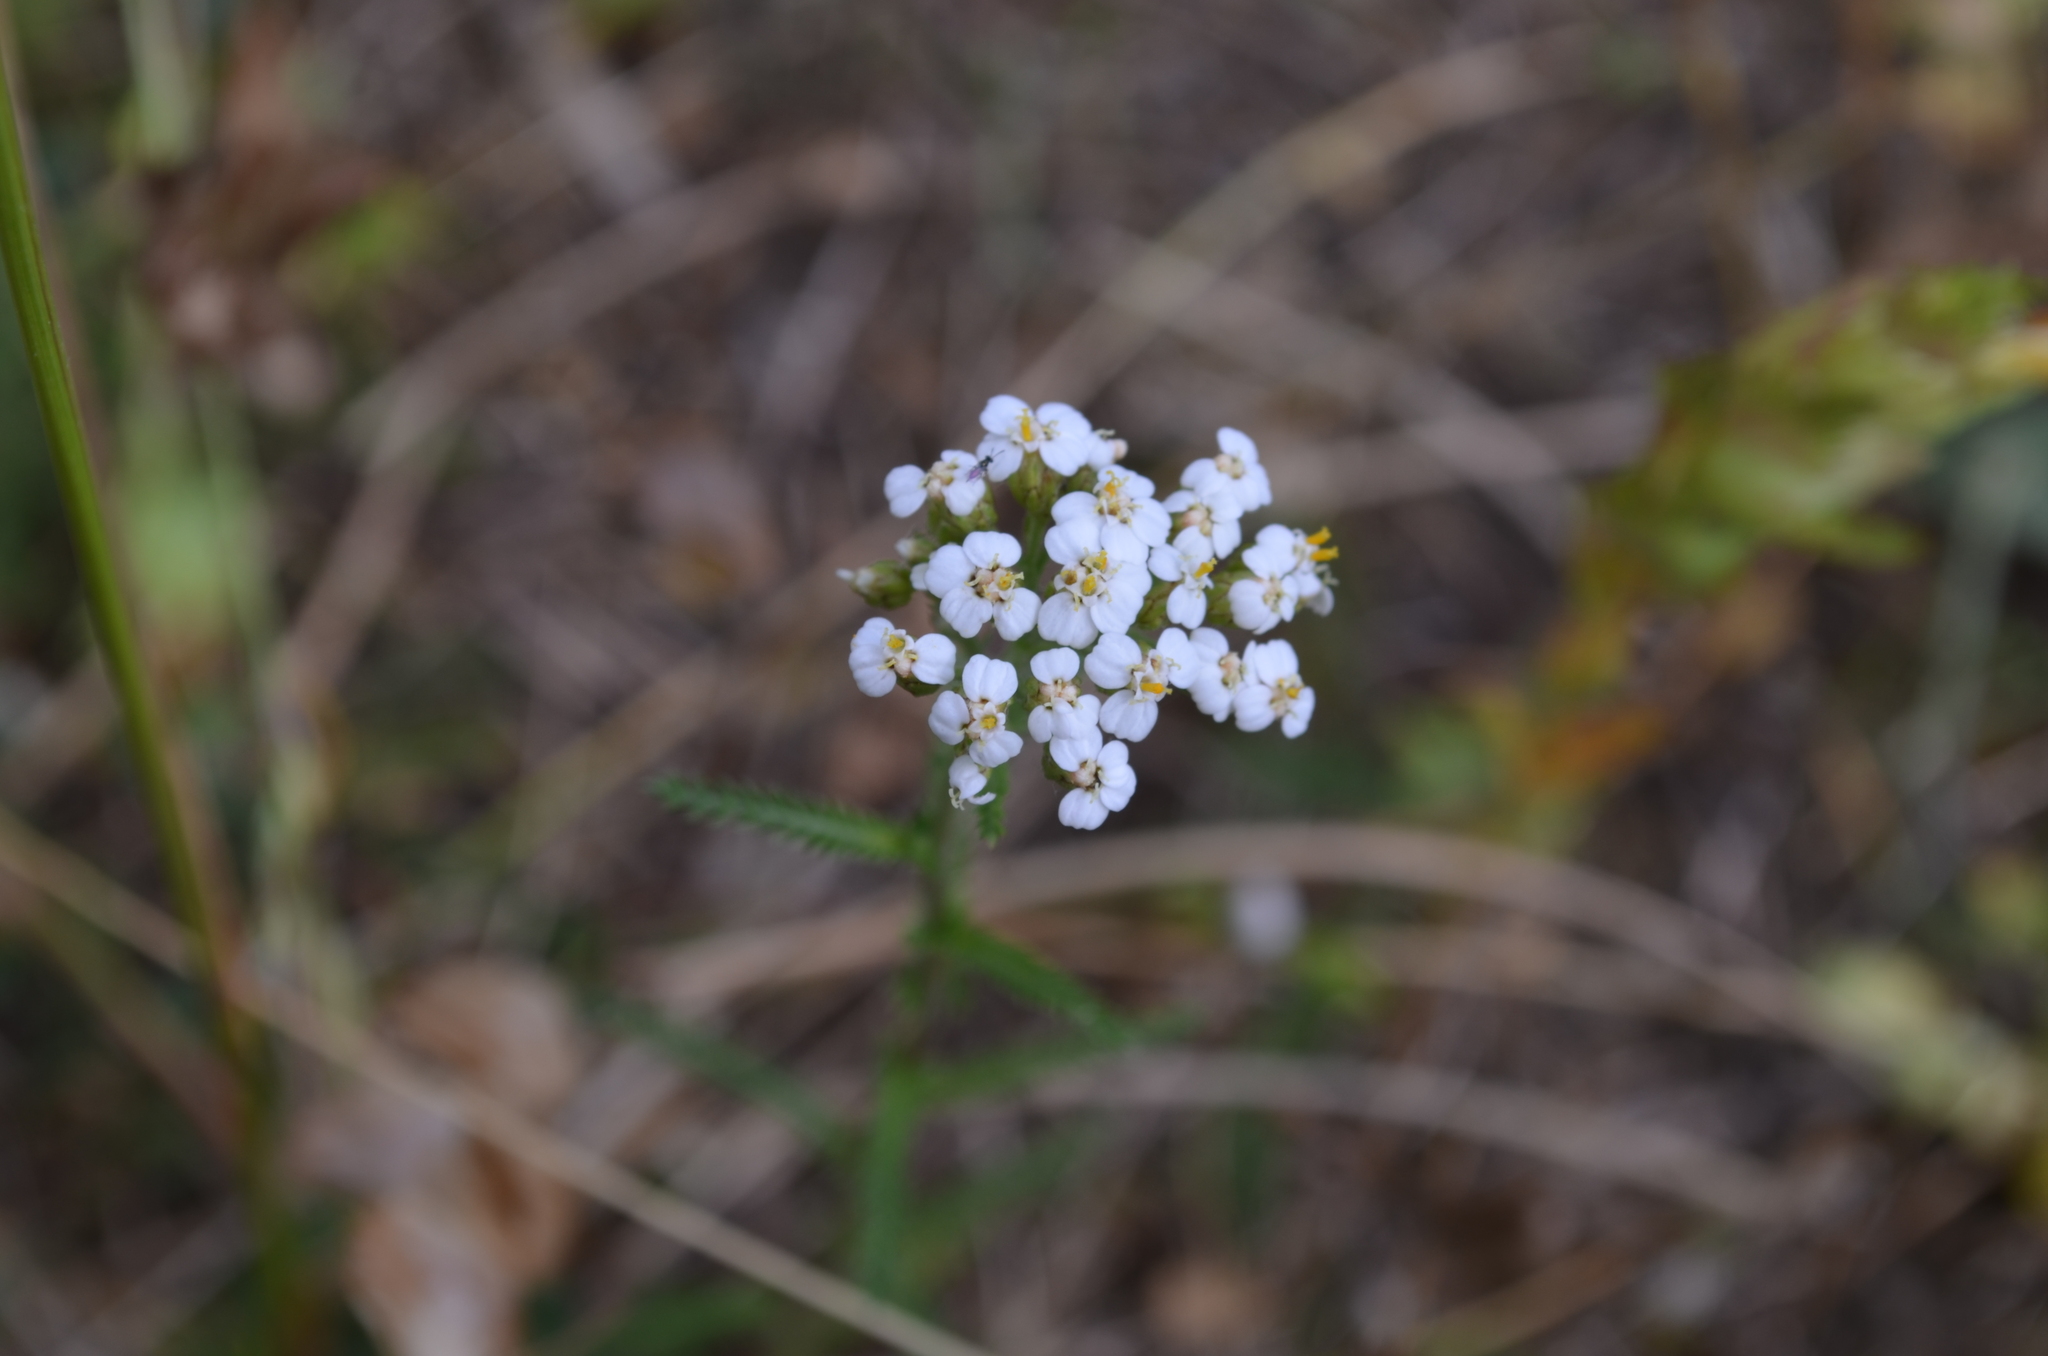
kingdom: Plantae
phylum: Tracheophyta
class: Magnoliopsida
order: Asterales
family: Asteraceae
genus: Achillea
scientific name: Achillea millefolium
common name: Yarrow
